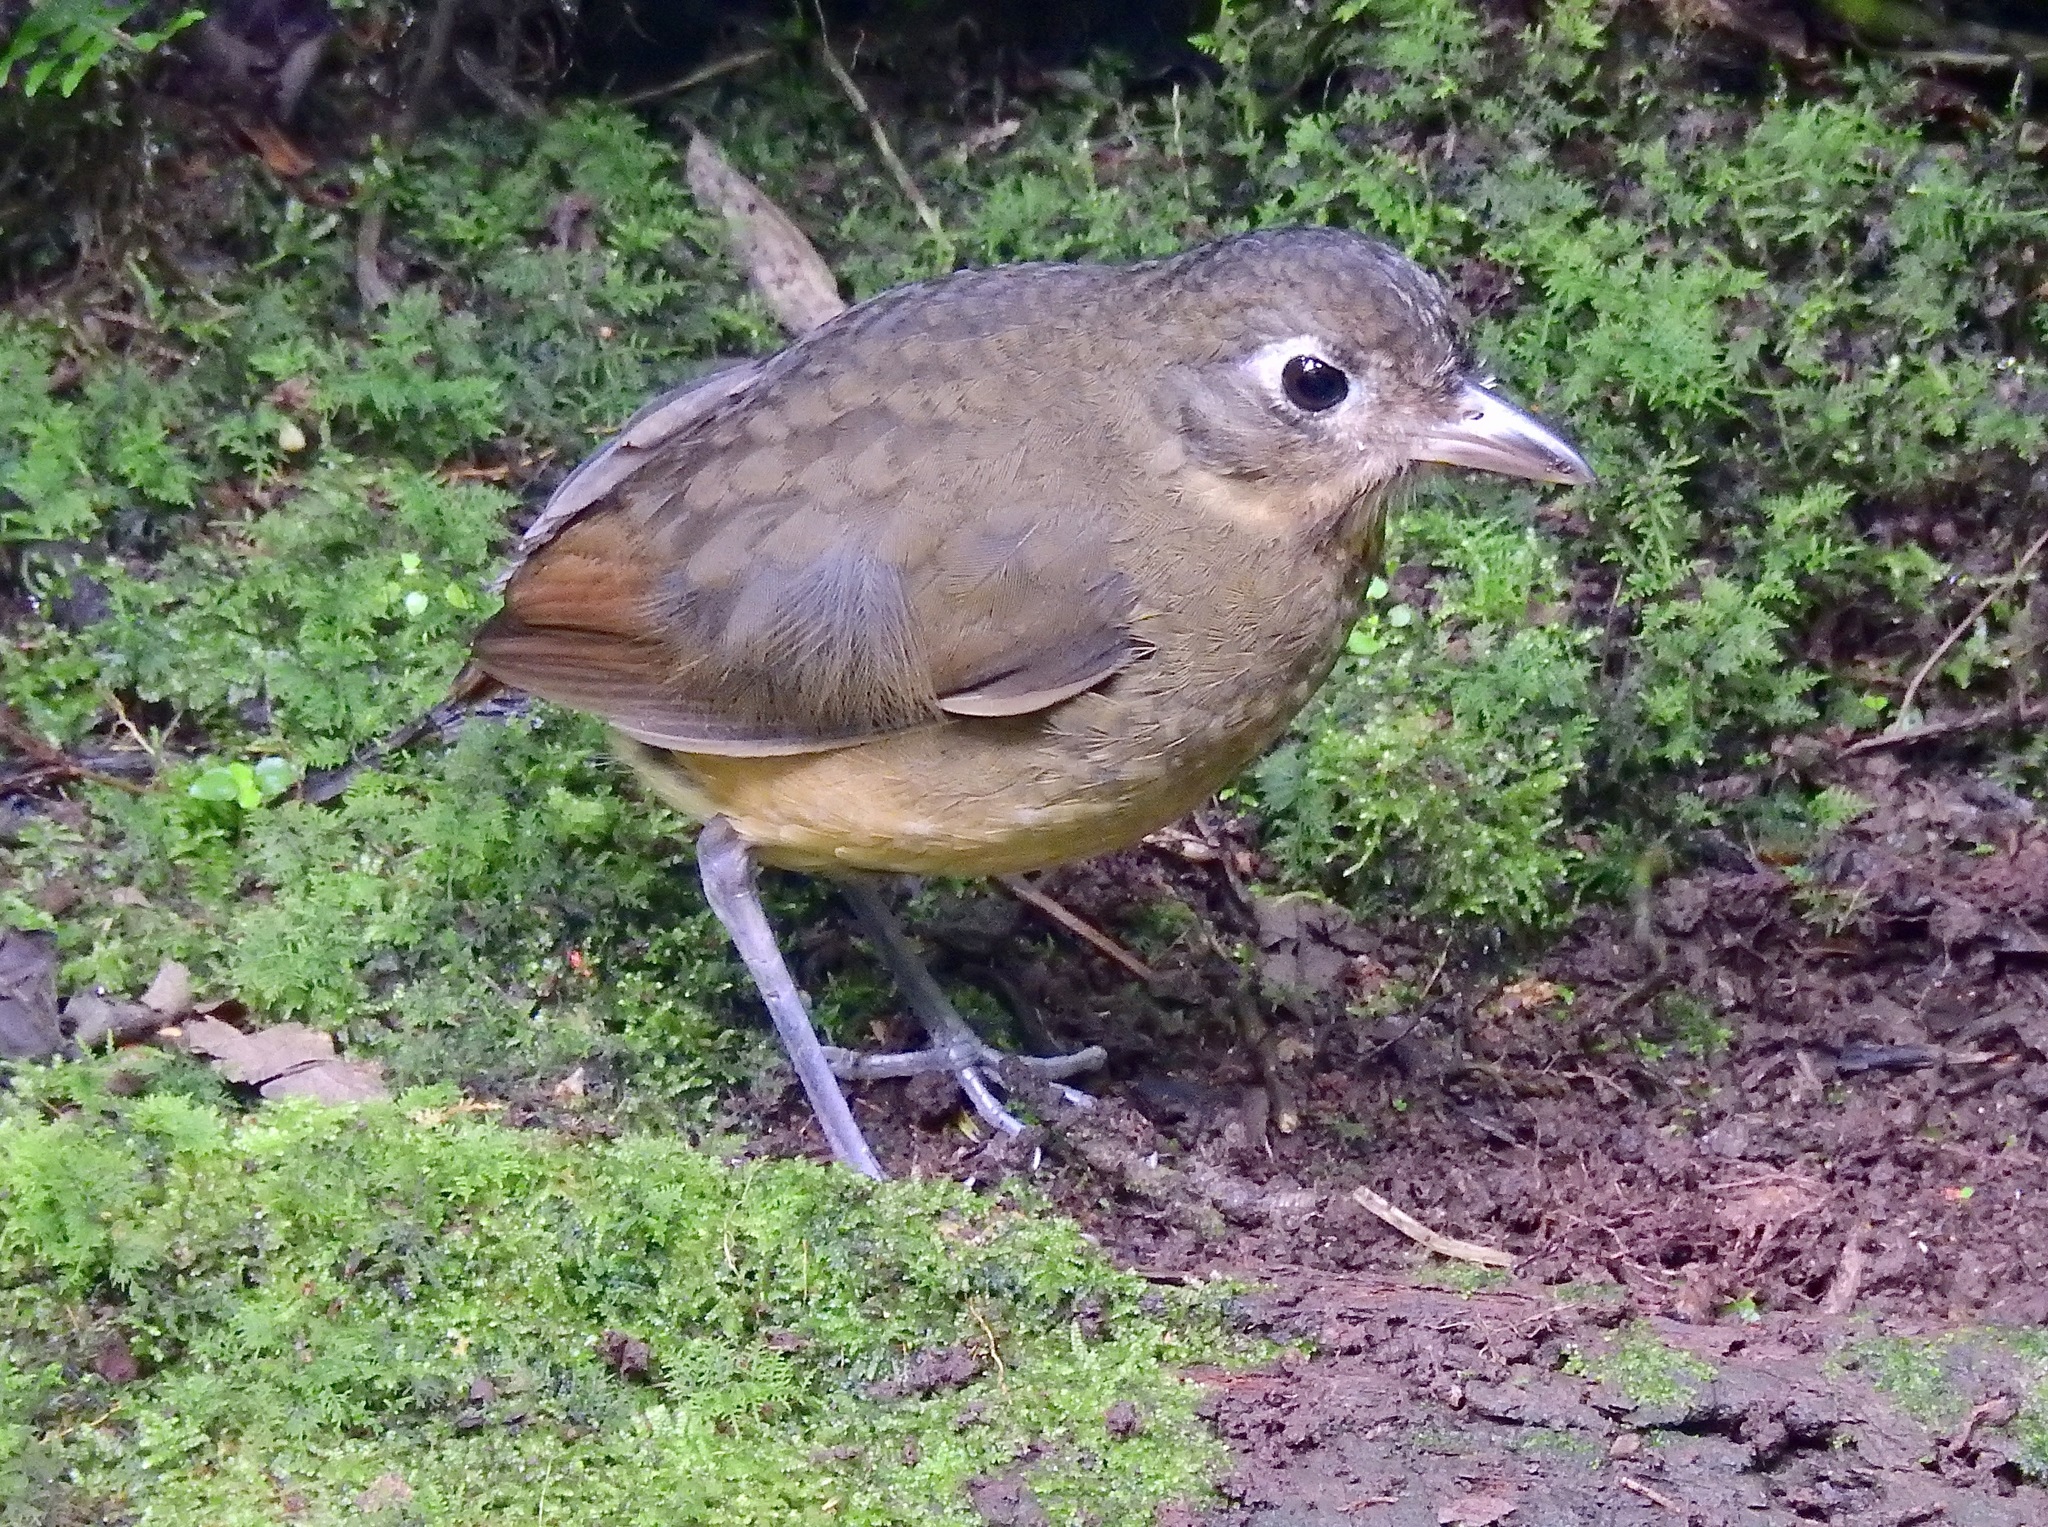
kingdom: Animalia
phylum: Chordata
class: Aves
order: Passeriformes
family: Grallariidae
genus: Grallaria
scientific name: Grallaria haplonota
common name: Plain-backed antpitta
